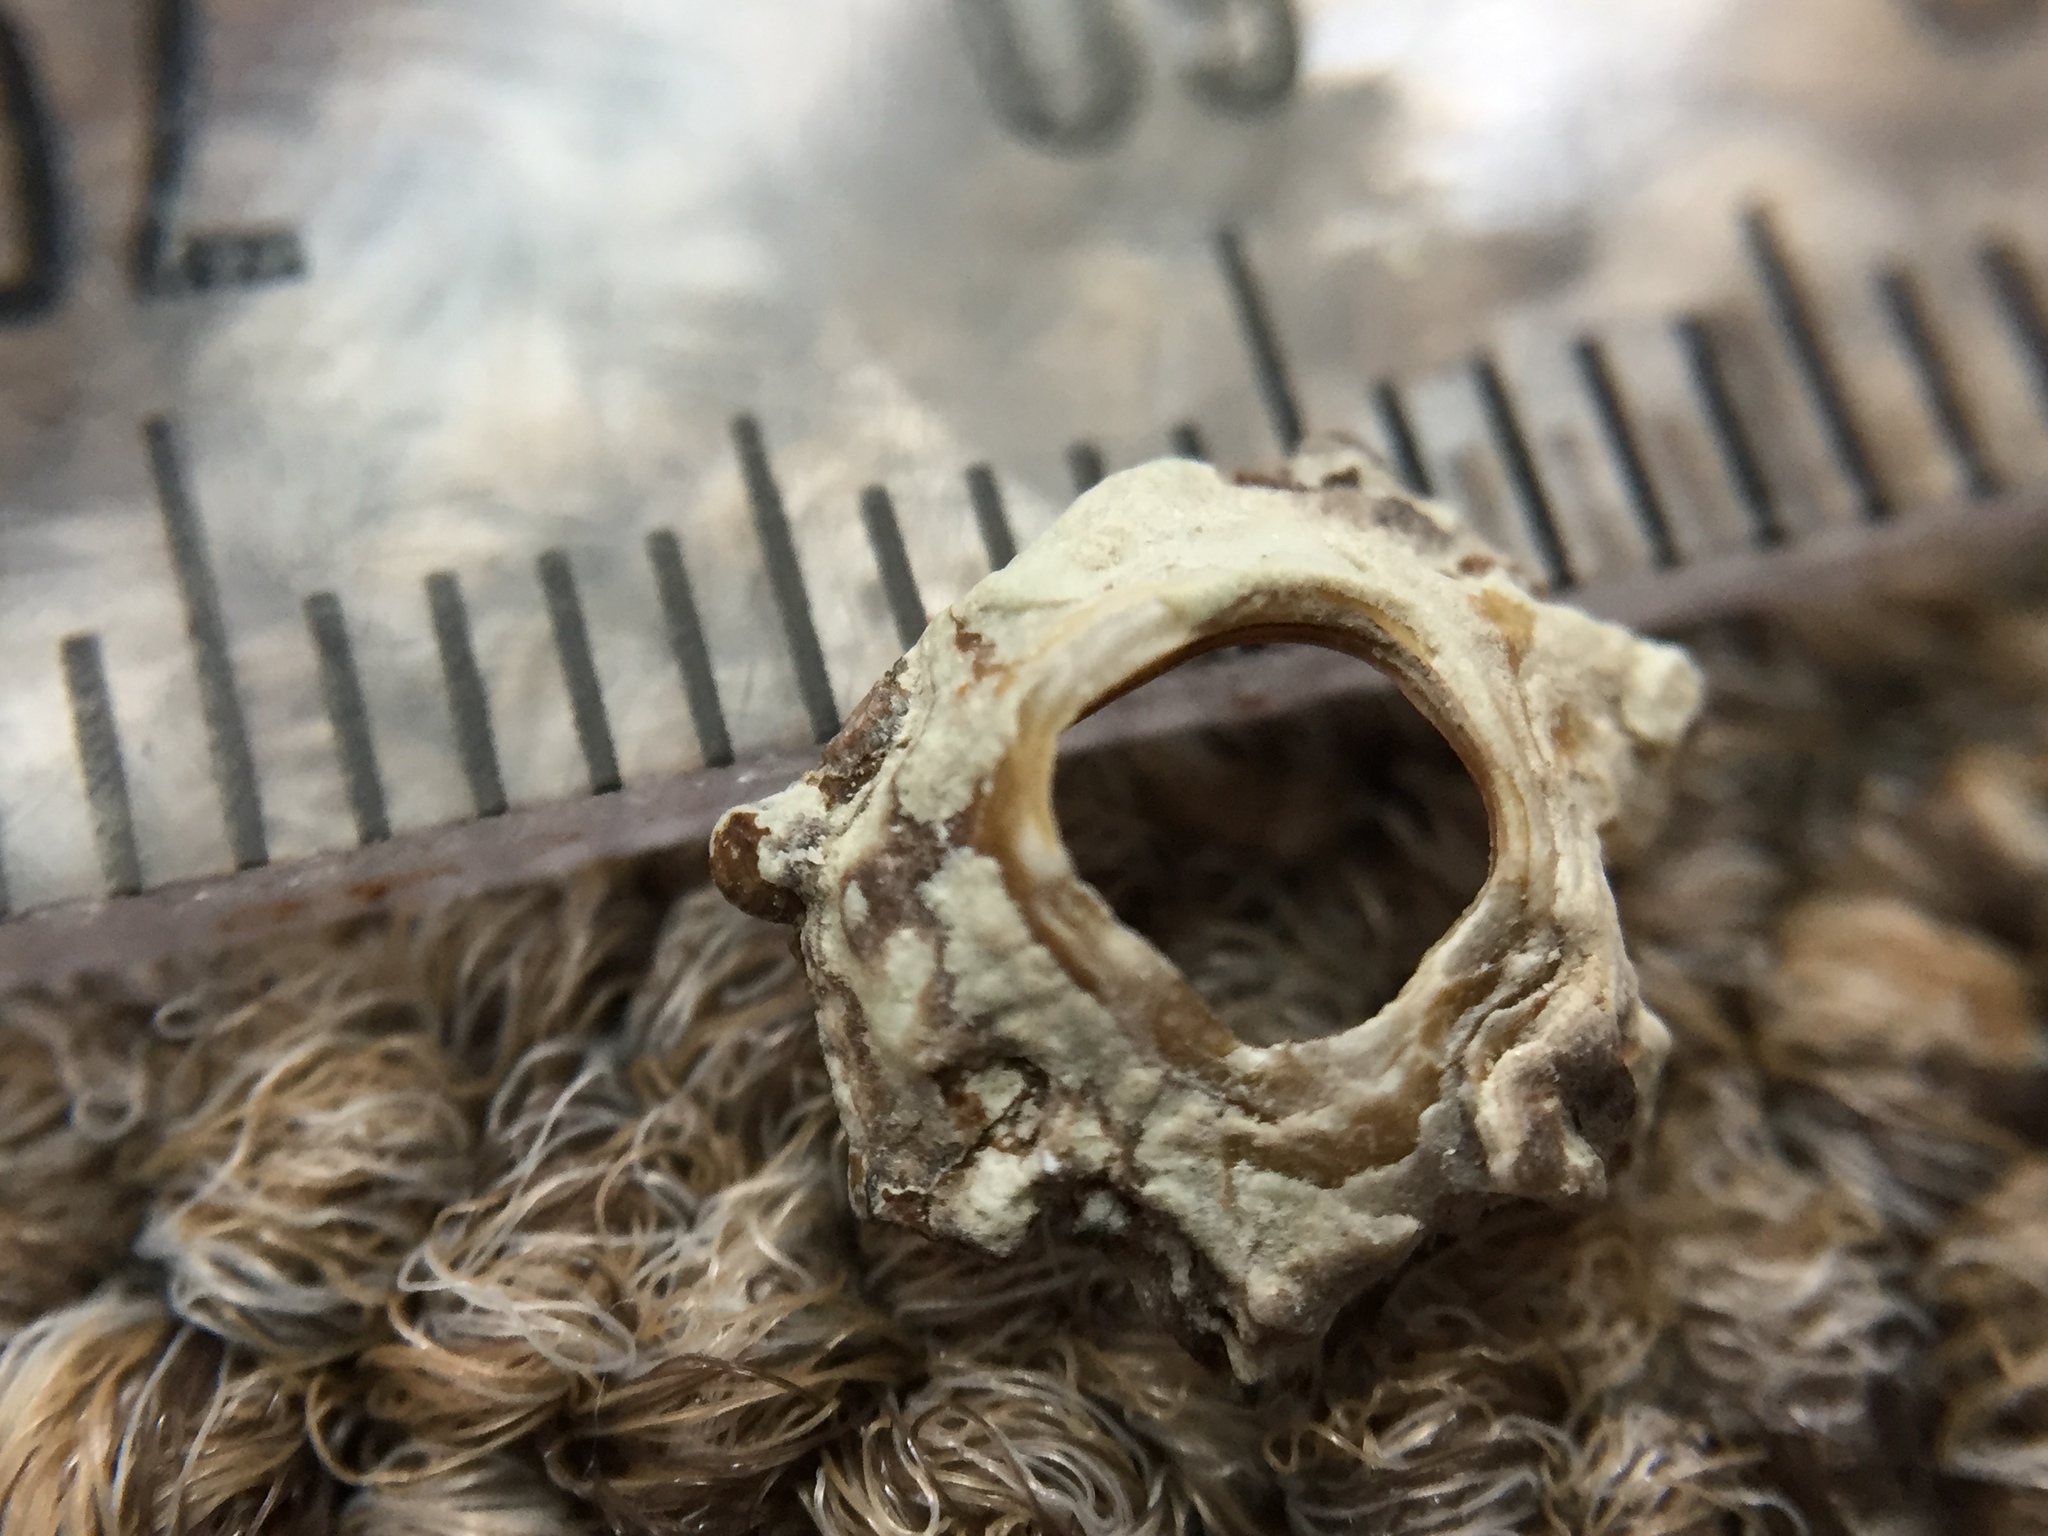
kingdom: Animalia
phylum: Arthropoda
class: Maxillopoda
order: Sessilia
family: Chthamalidae
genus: Chamaesipho
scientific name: Chamaesipho brunnea
